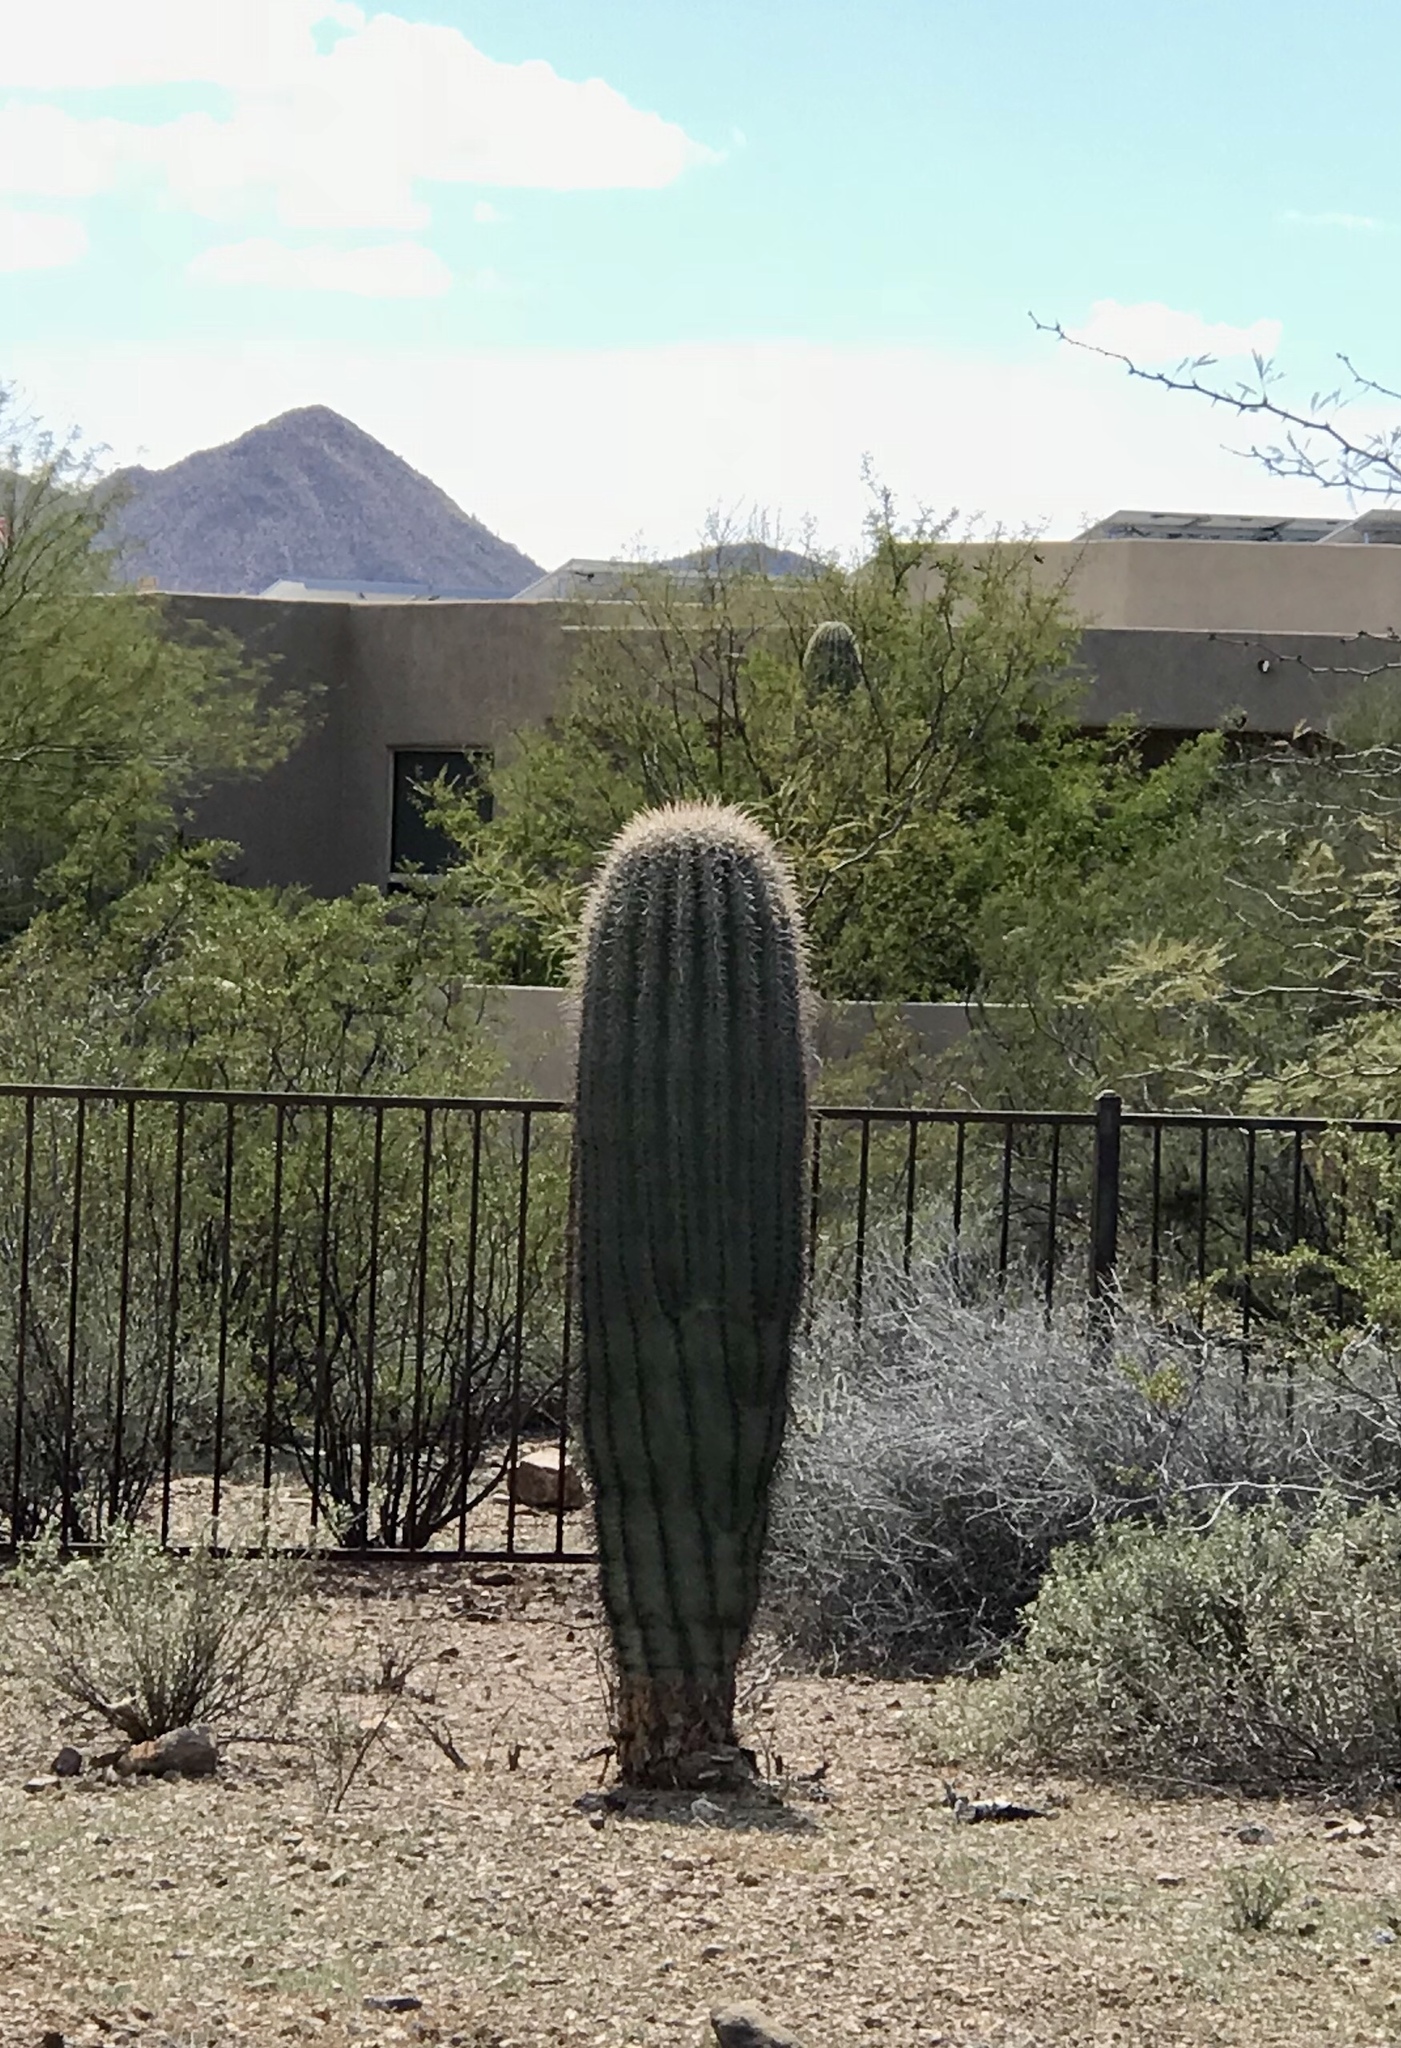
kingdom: Plantae
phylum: Tracheophyta
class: Magnoliopsida
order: Caryophyllales
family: Cactaceae
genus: Carnegiea
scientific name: Carnegiea gigantea
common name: Saguaro
